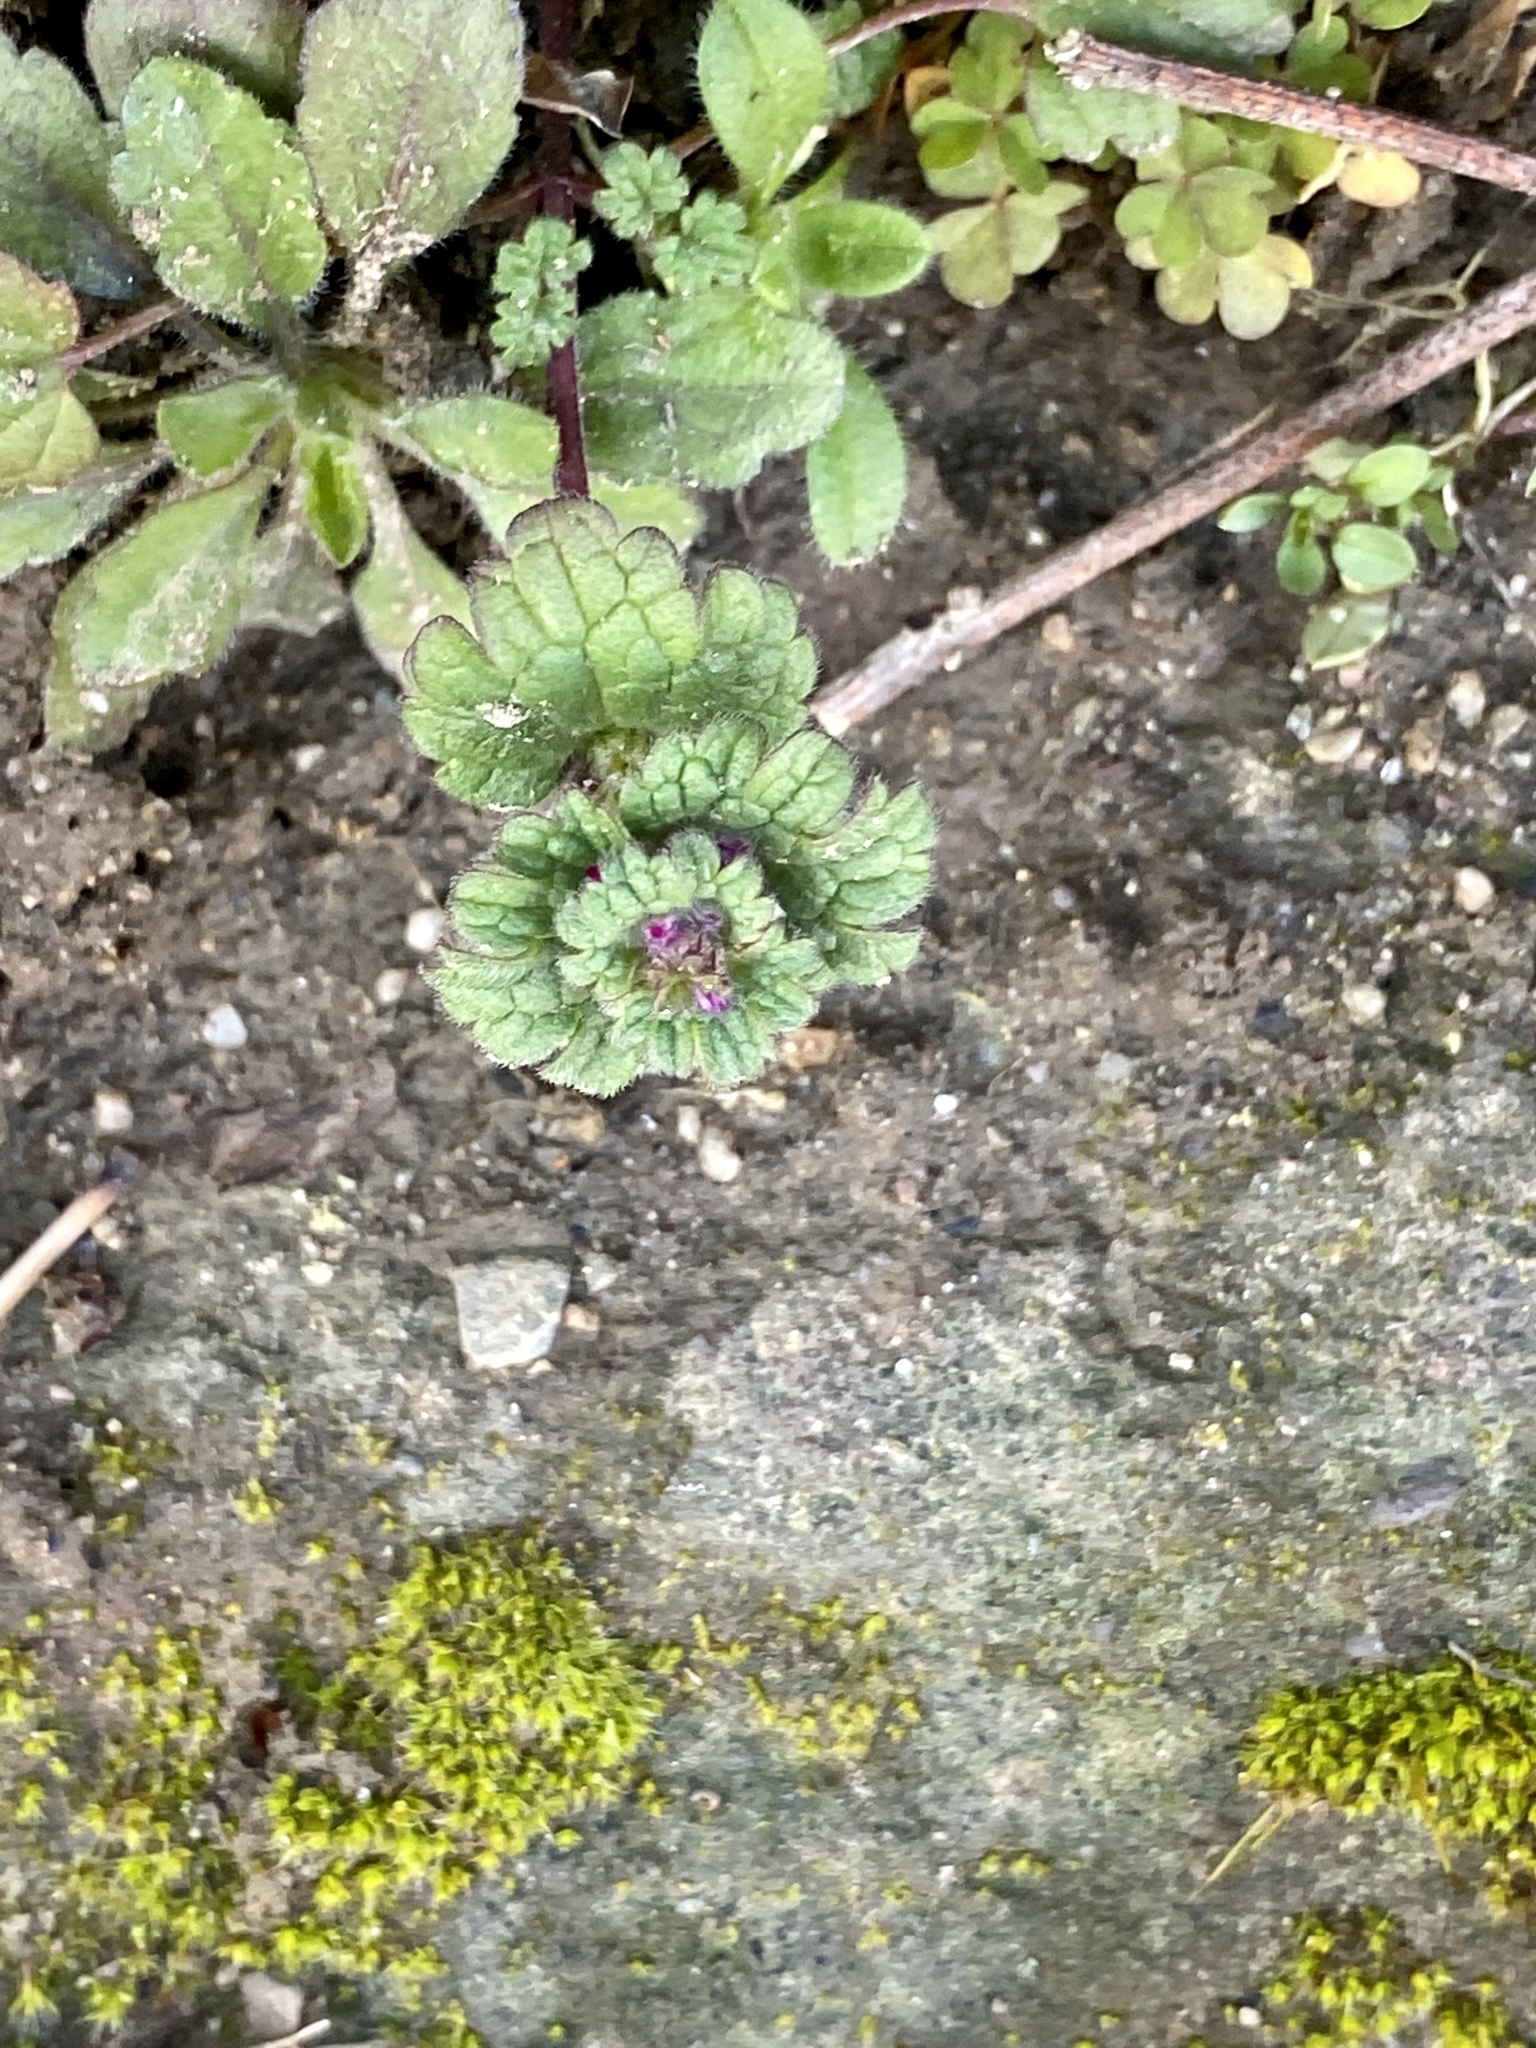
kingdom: Plantae
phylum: Tracheophyta
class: Magnoliopsida
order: Lamiales
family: Lamiaceae
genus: Lamium
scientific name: Lamium amplexicaule
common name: Henbit dead-nettle
